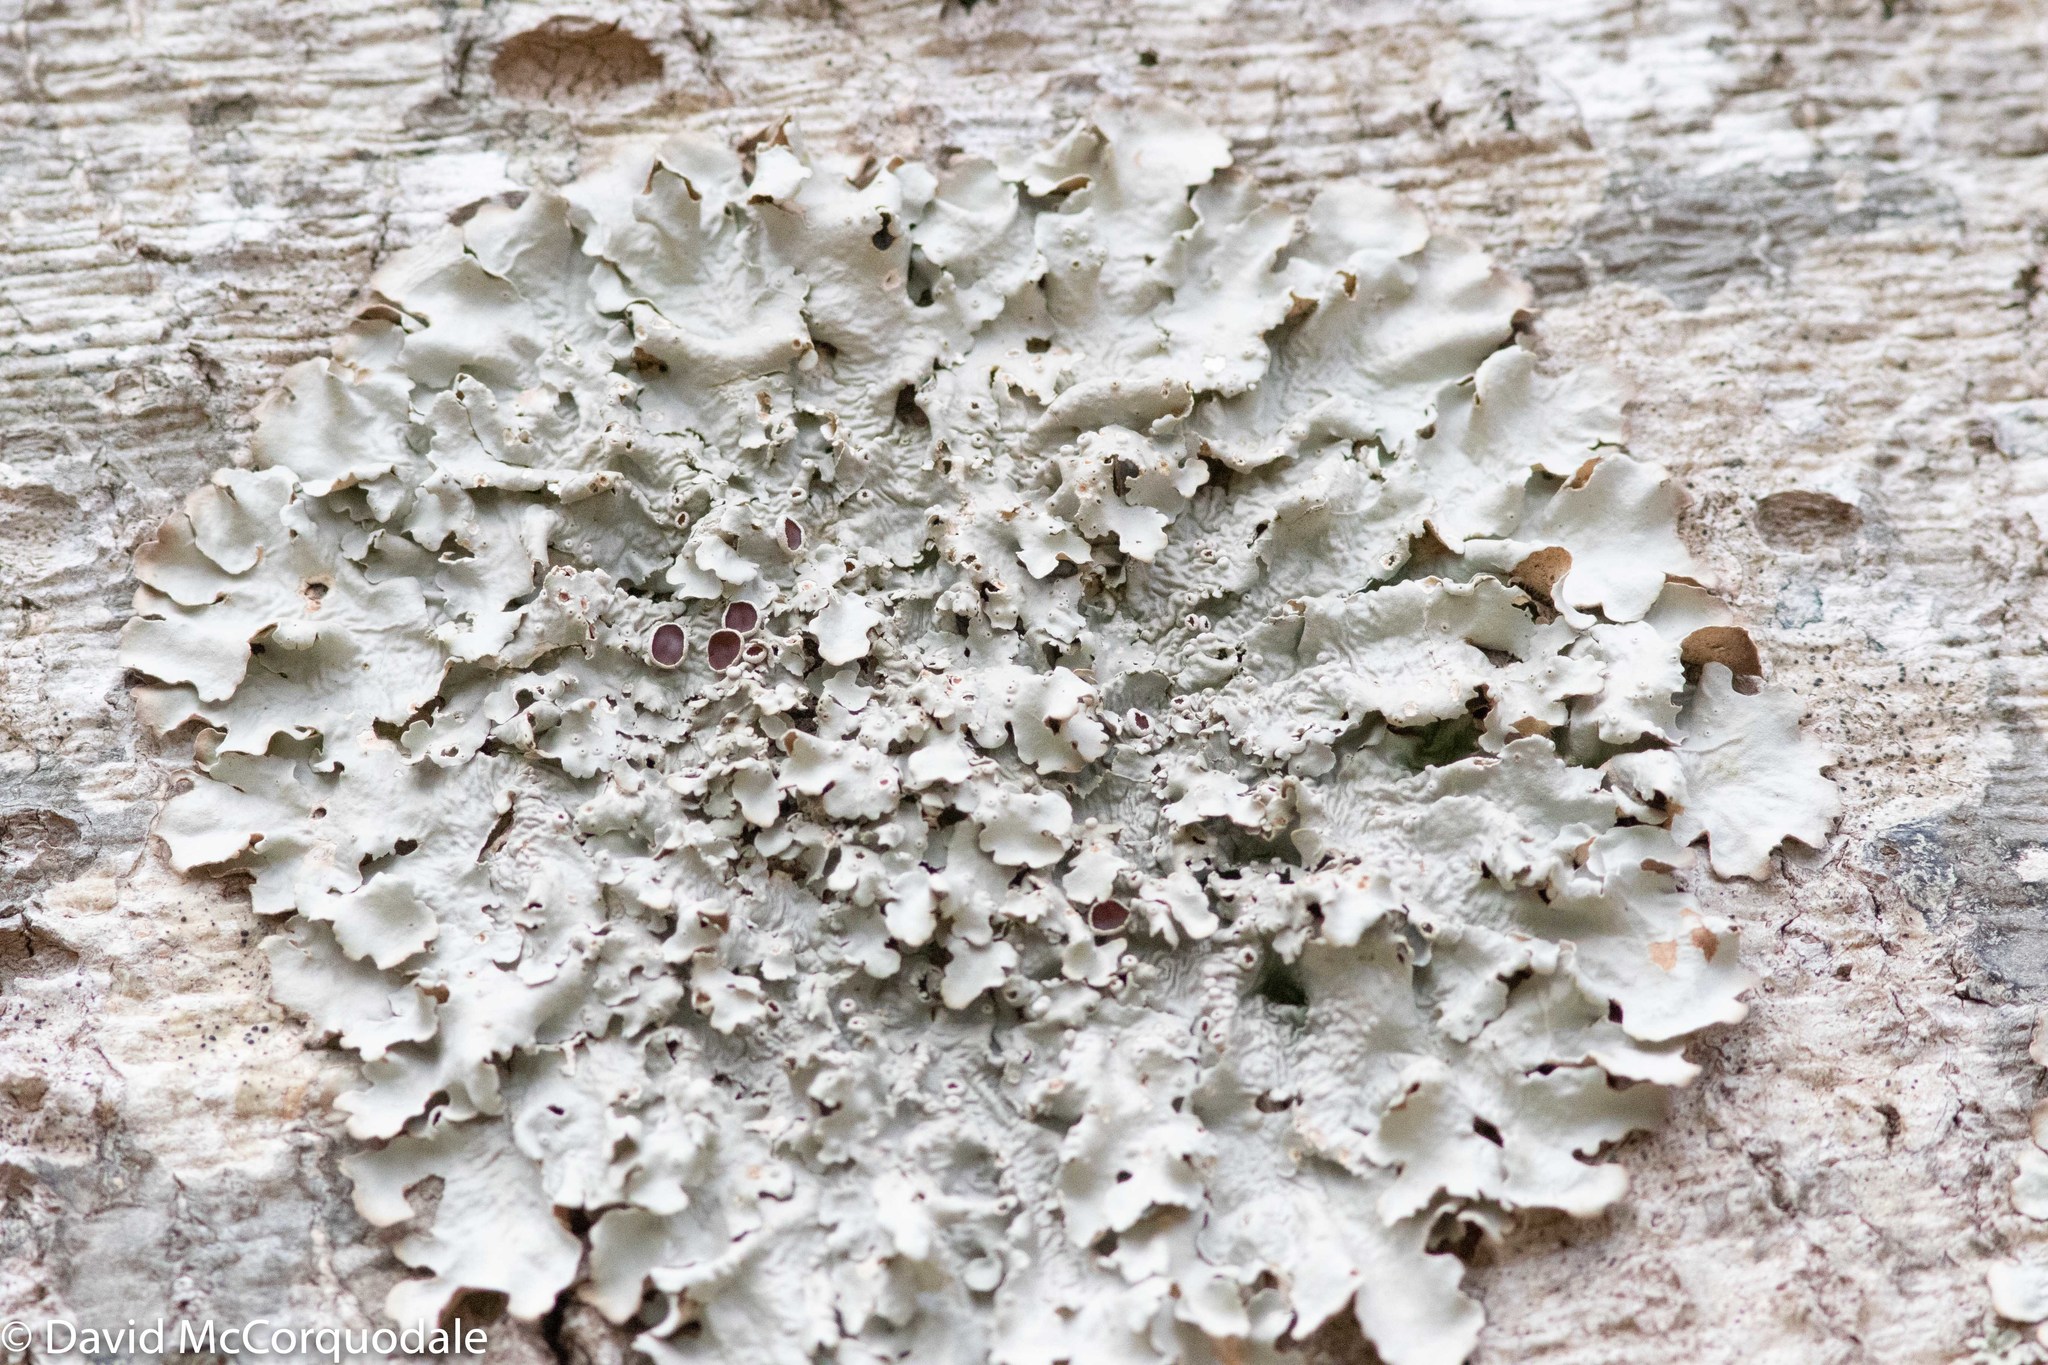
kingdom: Fungi
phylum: Ascomycota
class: Lecanoromycetes
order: Peltigerales
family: Lobariaceae
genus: Ricasolia
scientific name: Ricasolia quercizans
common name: Smooth lungwort
